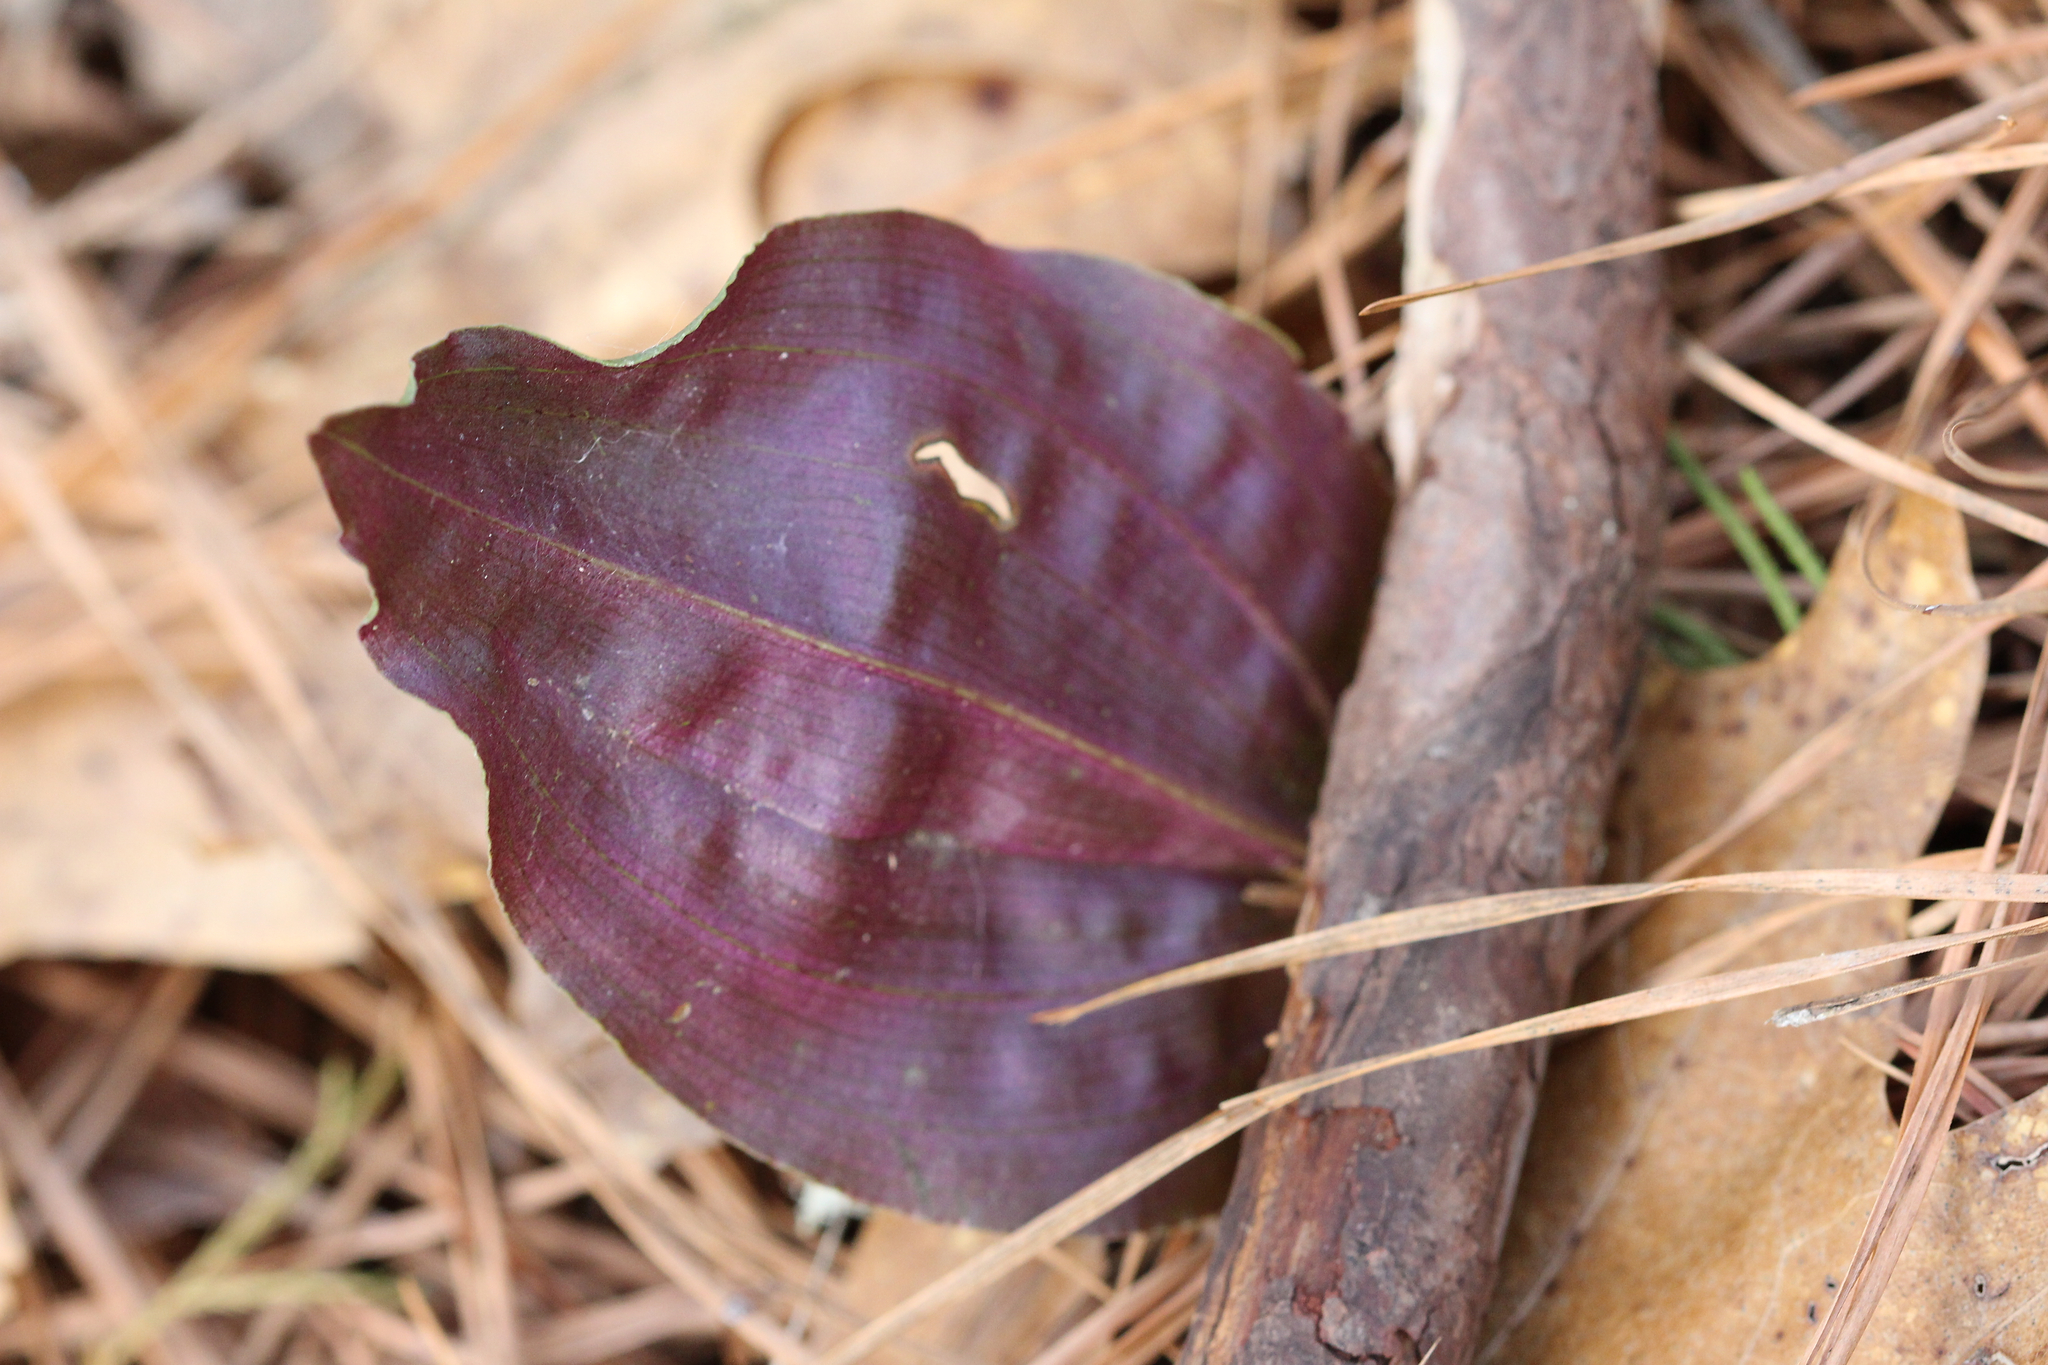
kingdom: Plantae
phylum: Tracheophyta
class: Liliopsida
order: Asparagales
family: Orchidaceae
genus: Tipularia
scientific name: Tipularia discolor
